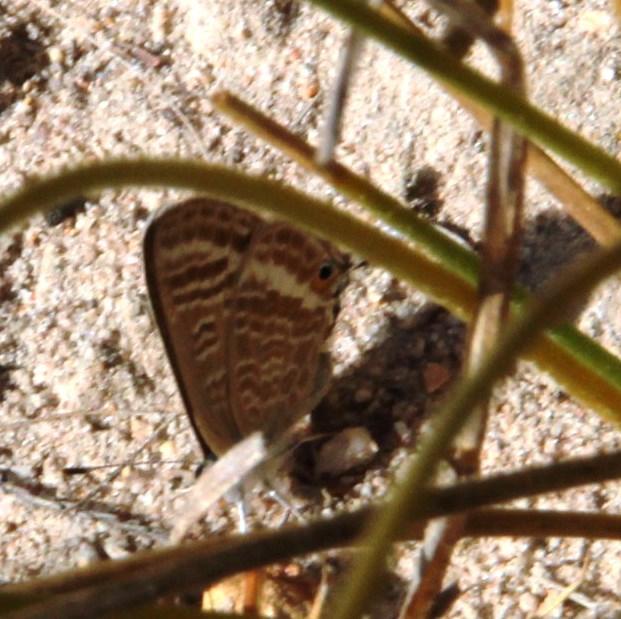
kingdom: Animalia
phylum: Arthropoda
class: Insecta
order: Lepidoptera
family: Lycaenidae
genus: Lampides
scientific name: Lampides boeticus
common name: Long-tailed blue
